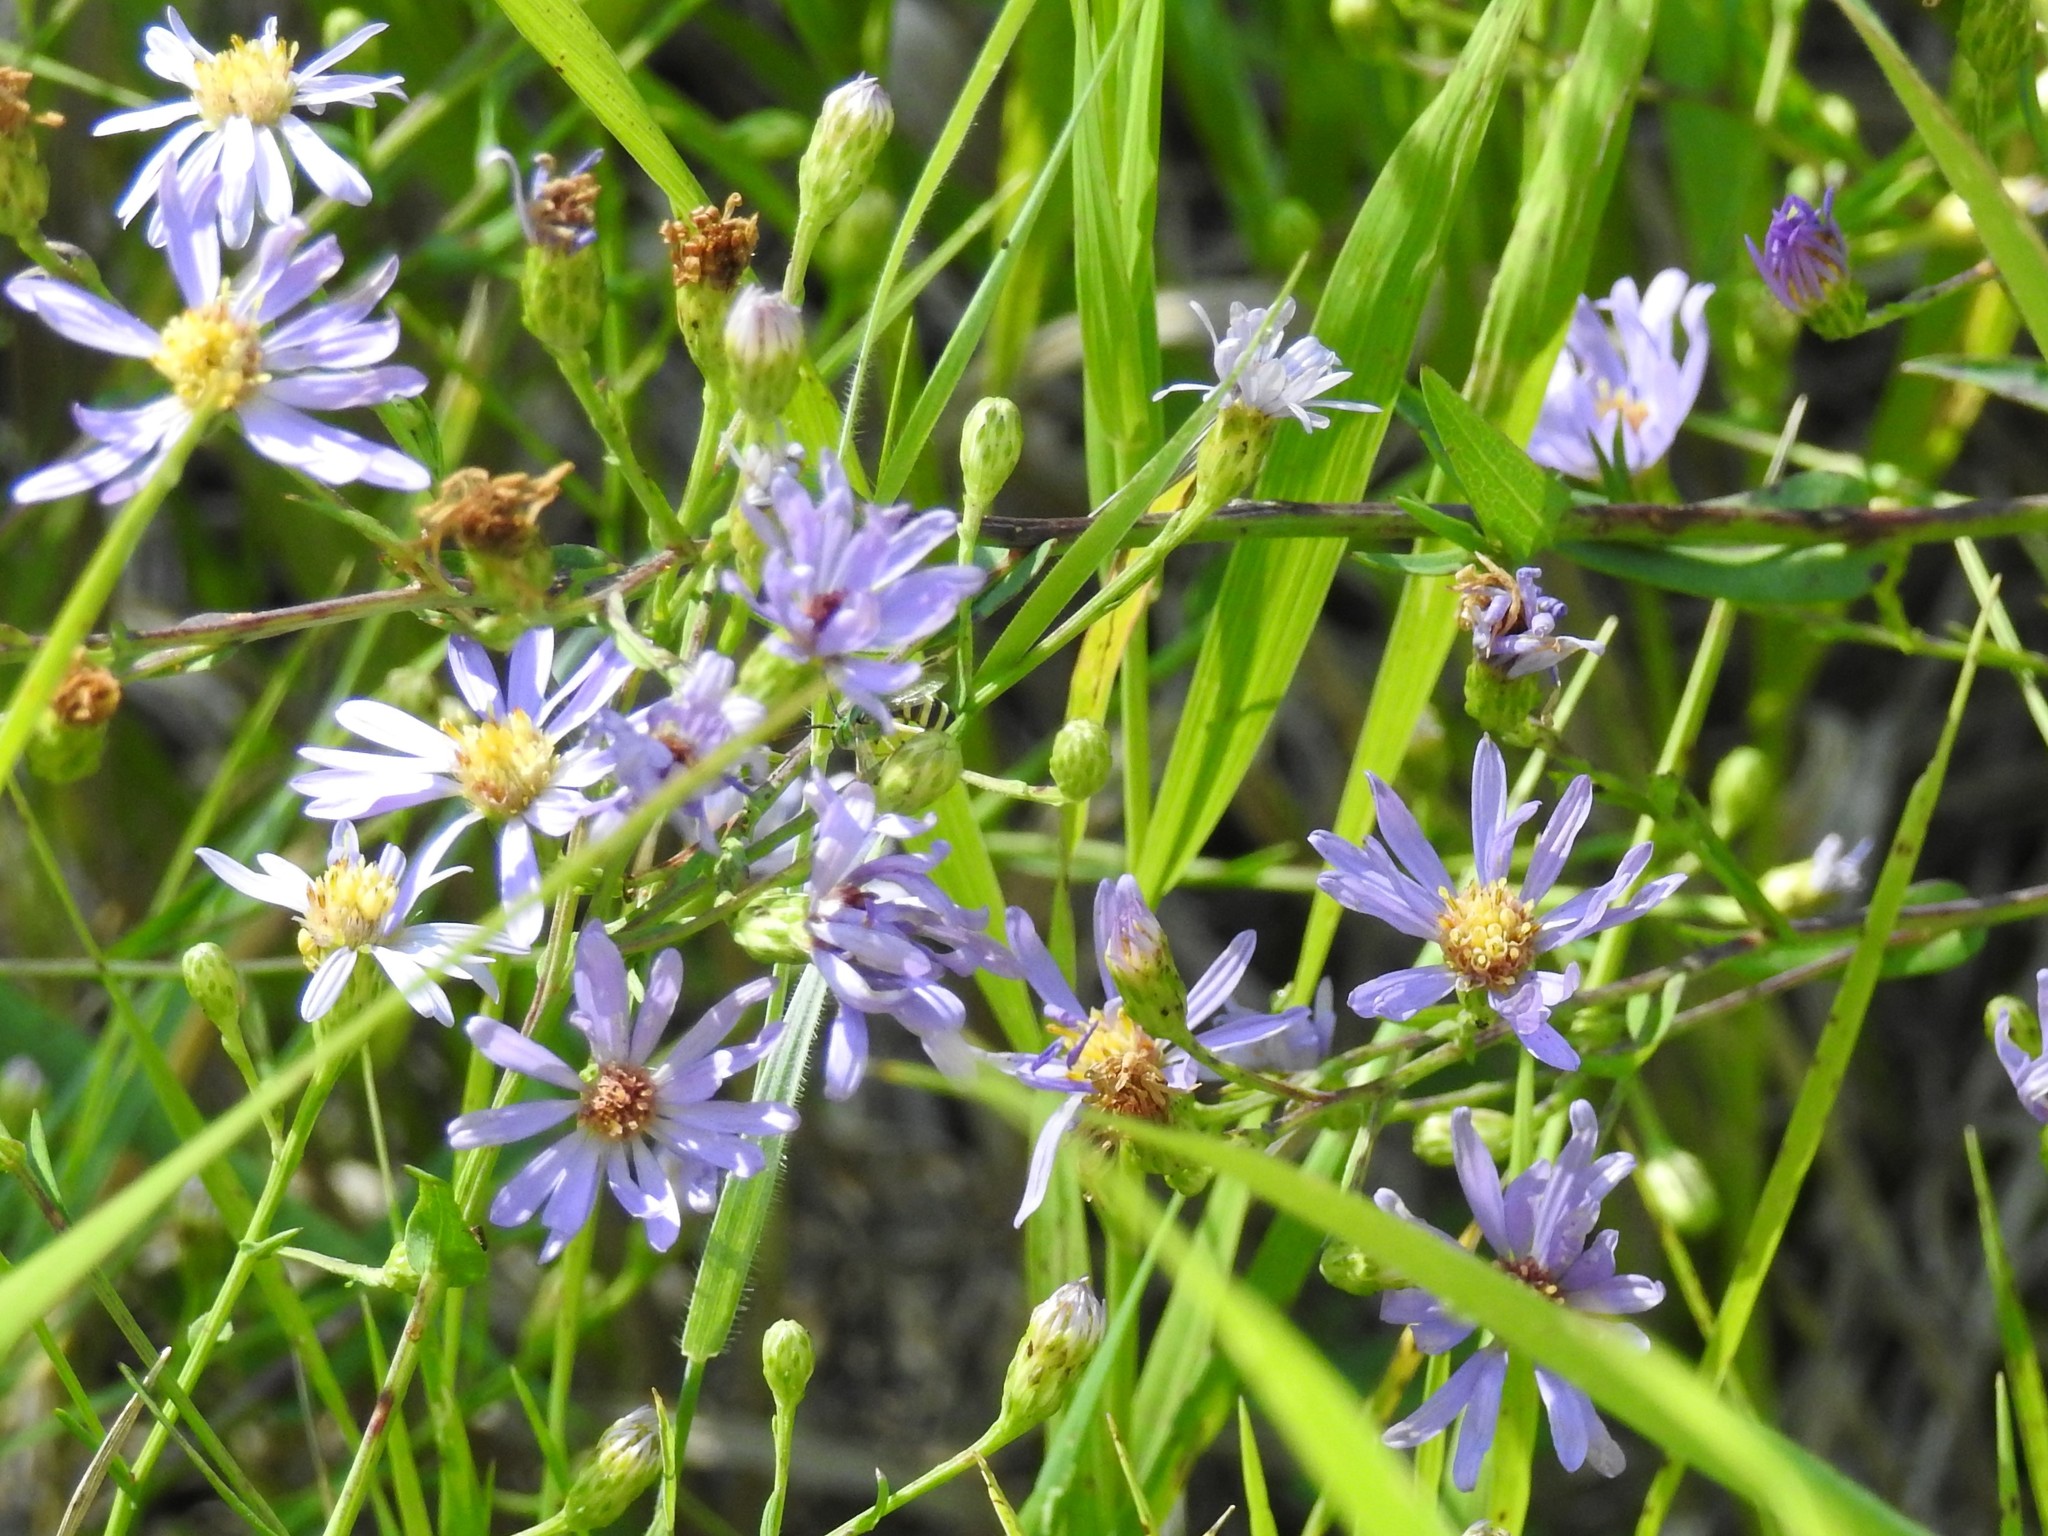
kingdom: Plantae
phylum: Tracheophyta
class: Magnoliopsida
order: Asterales
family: Asteraceae
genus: Symphyotrichum
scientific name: Symphyotrichum laeve
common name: Glaucous aster
